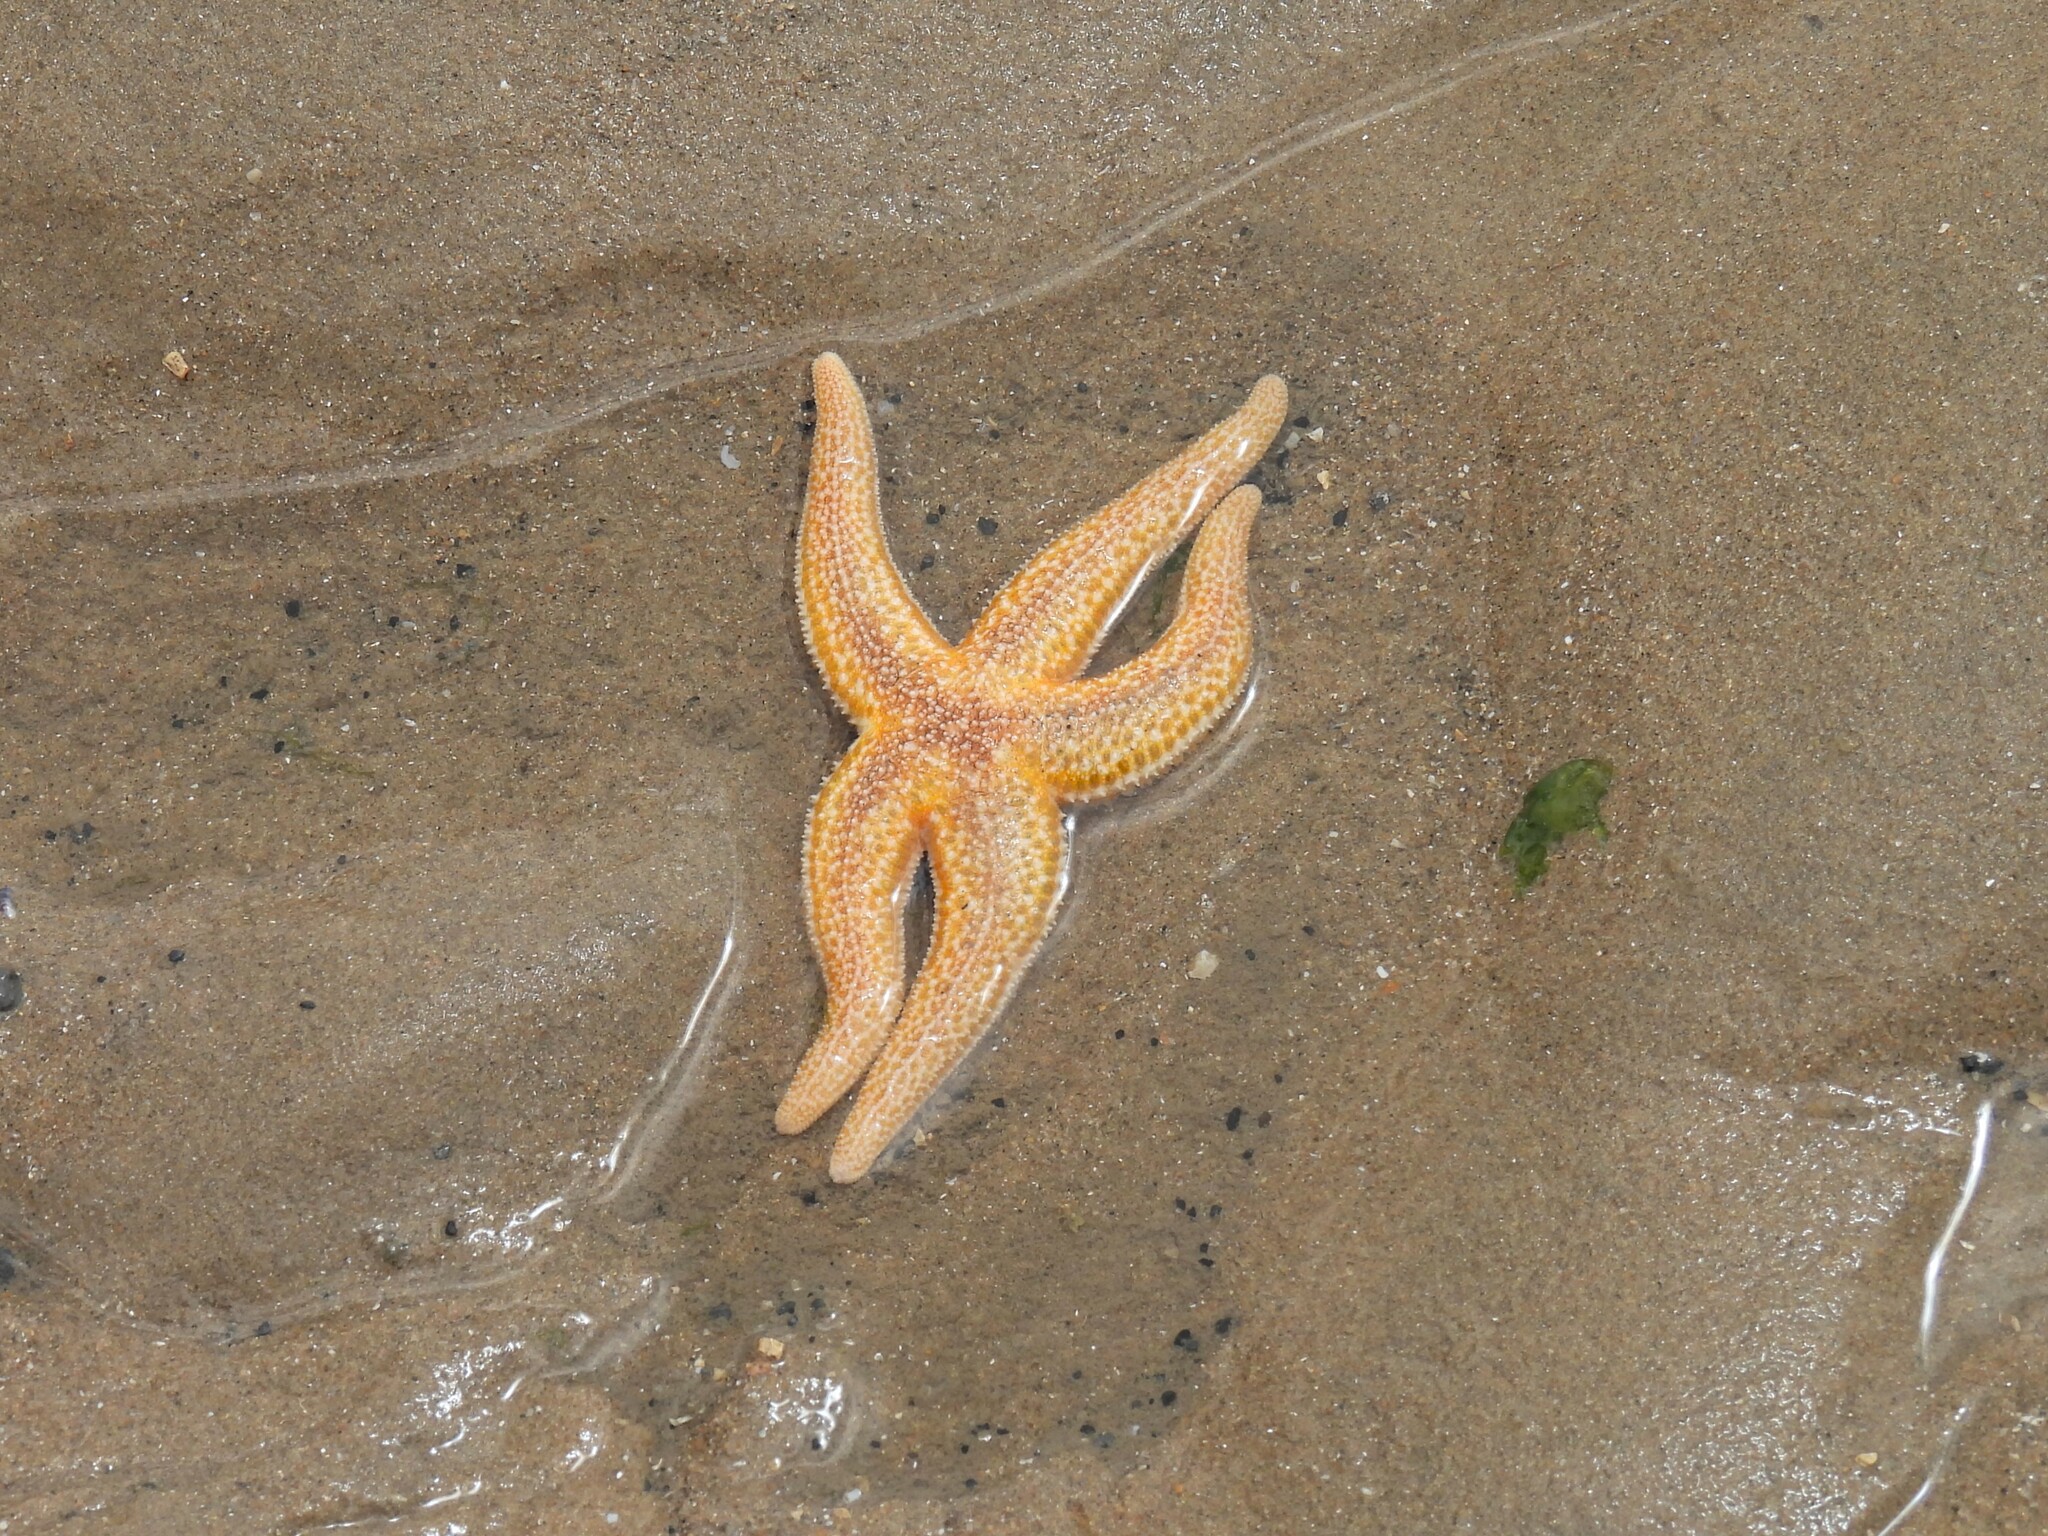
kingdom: Animalia
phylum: Echinodermata
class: Asteroidea
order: Forcipulatida
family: Asteriidae
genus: Asterias
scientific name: Asterias rubens
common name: Common starfish
